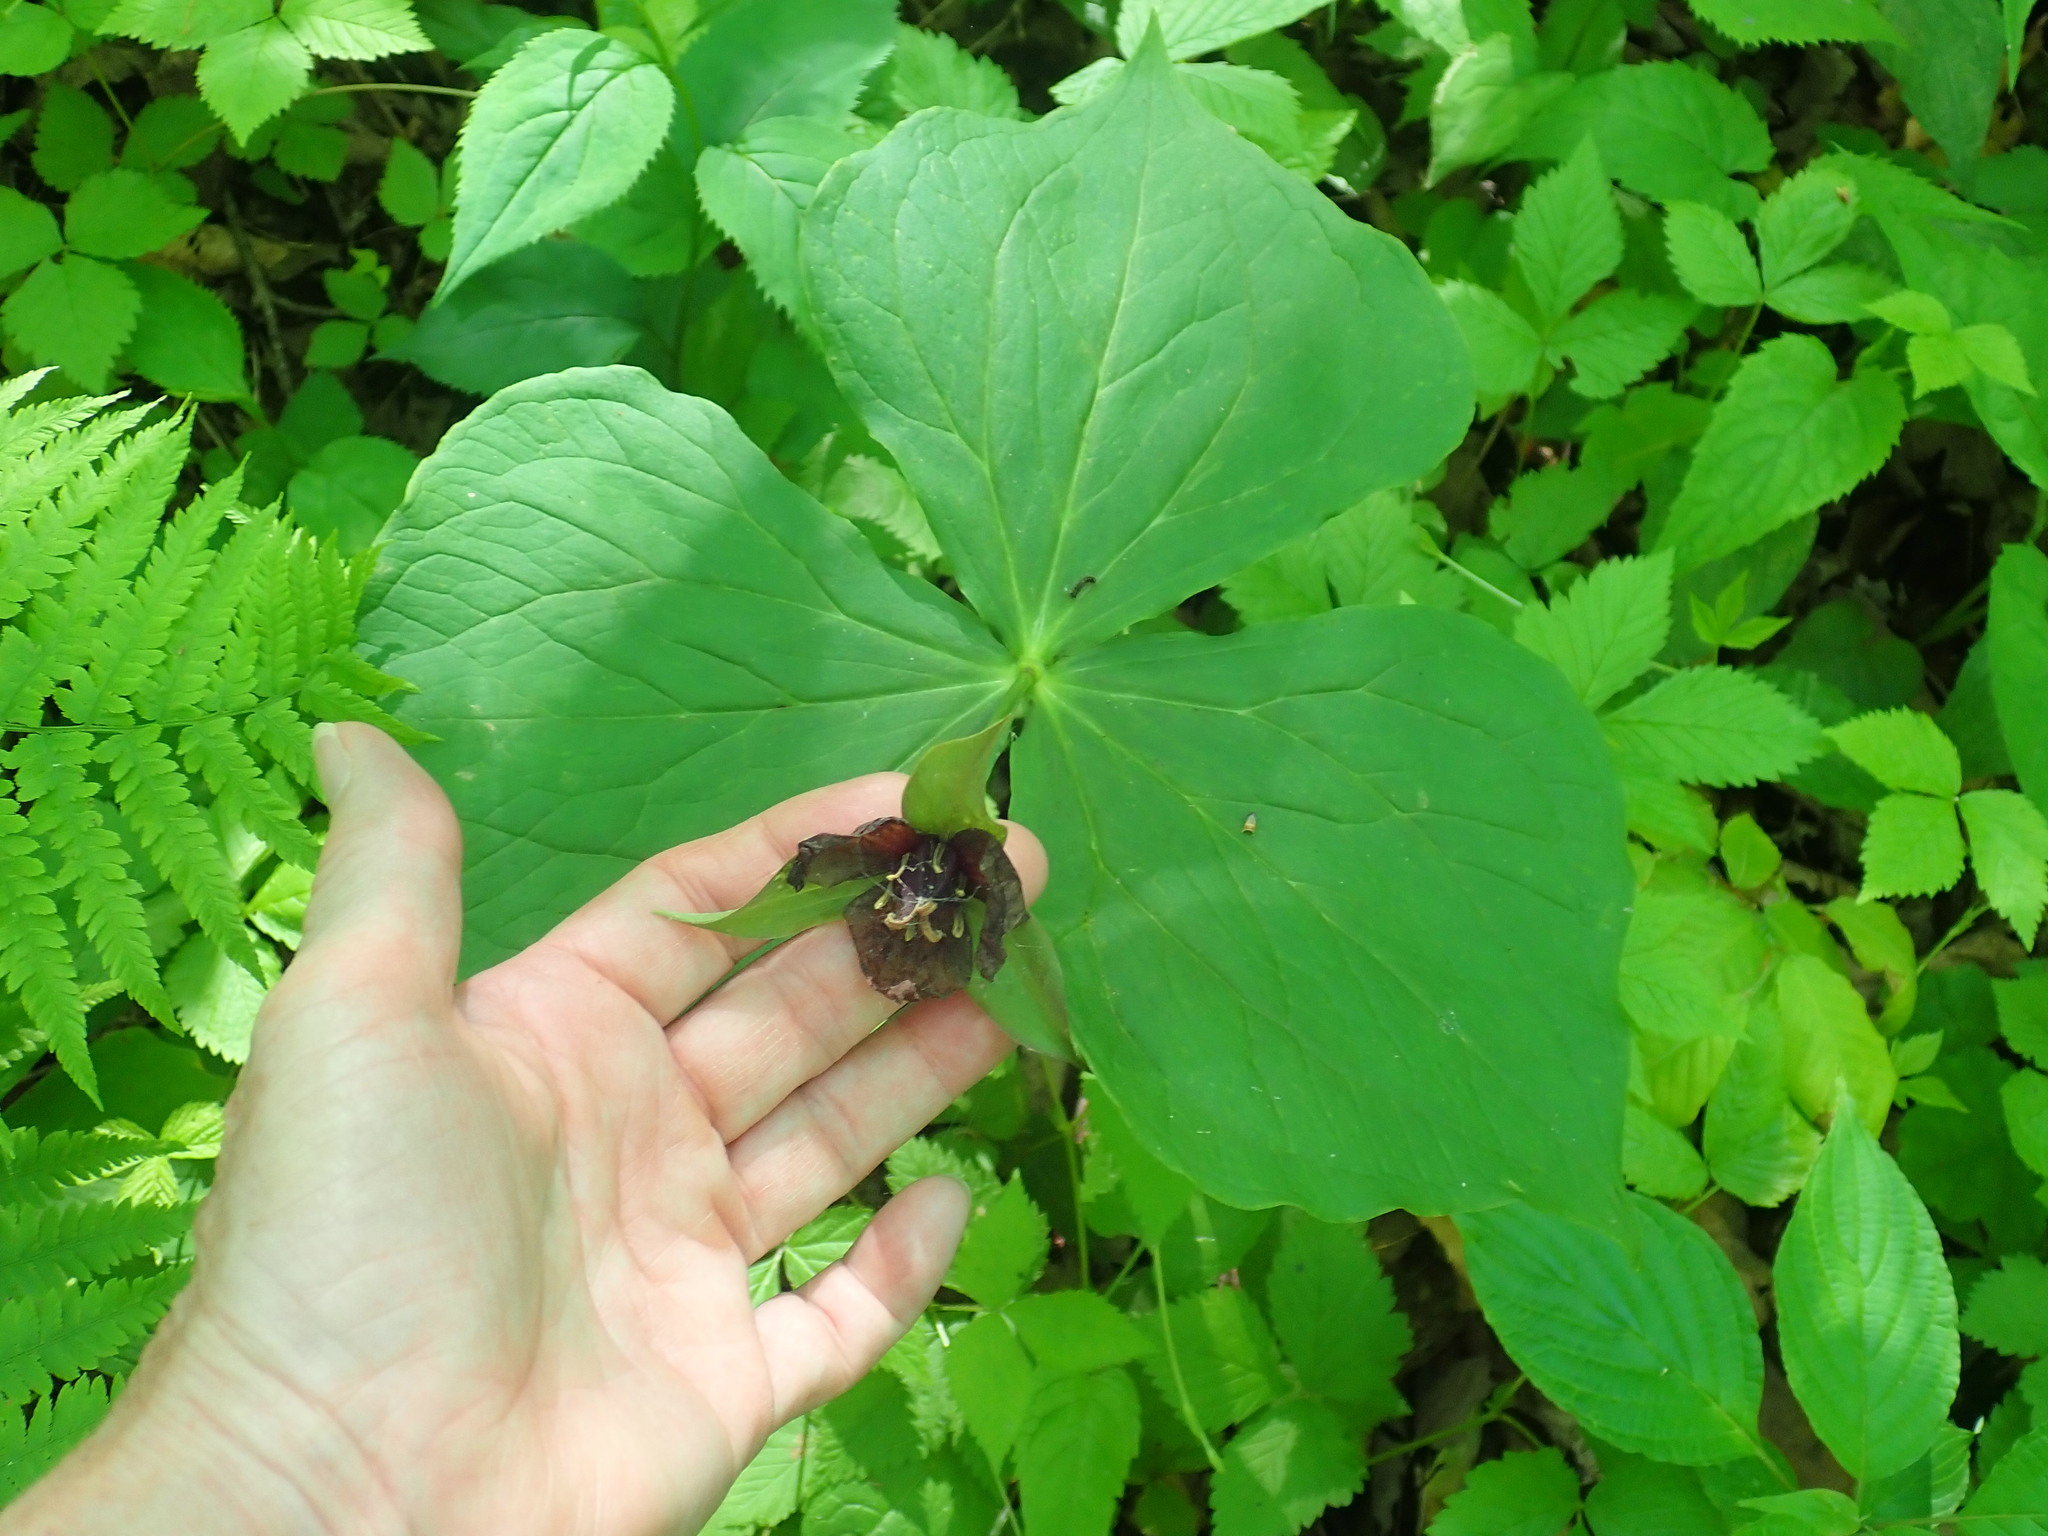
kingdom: Plantae
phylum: Tracheophyta
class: Liliopsida
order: Liliales
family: Melanthiaceae
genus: Trillium
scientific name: Trillium erectum
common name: Purple trillium
